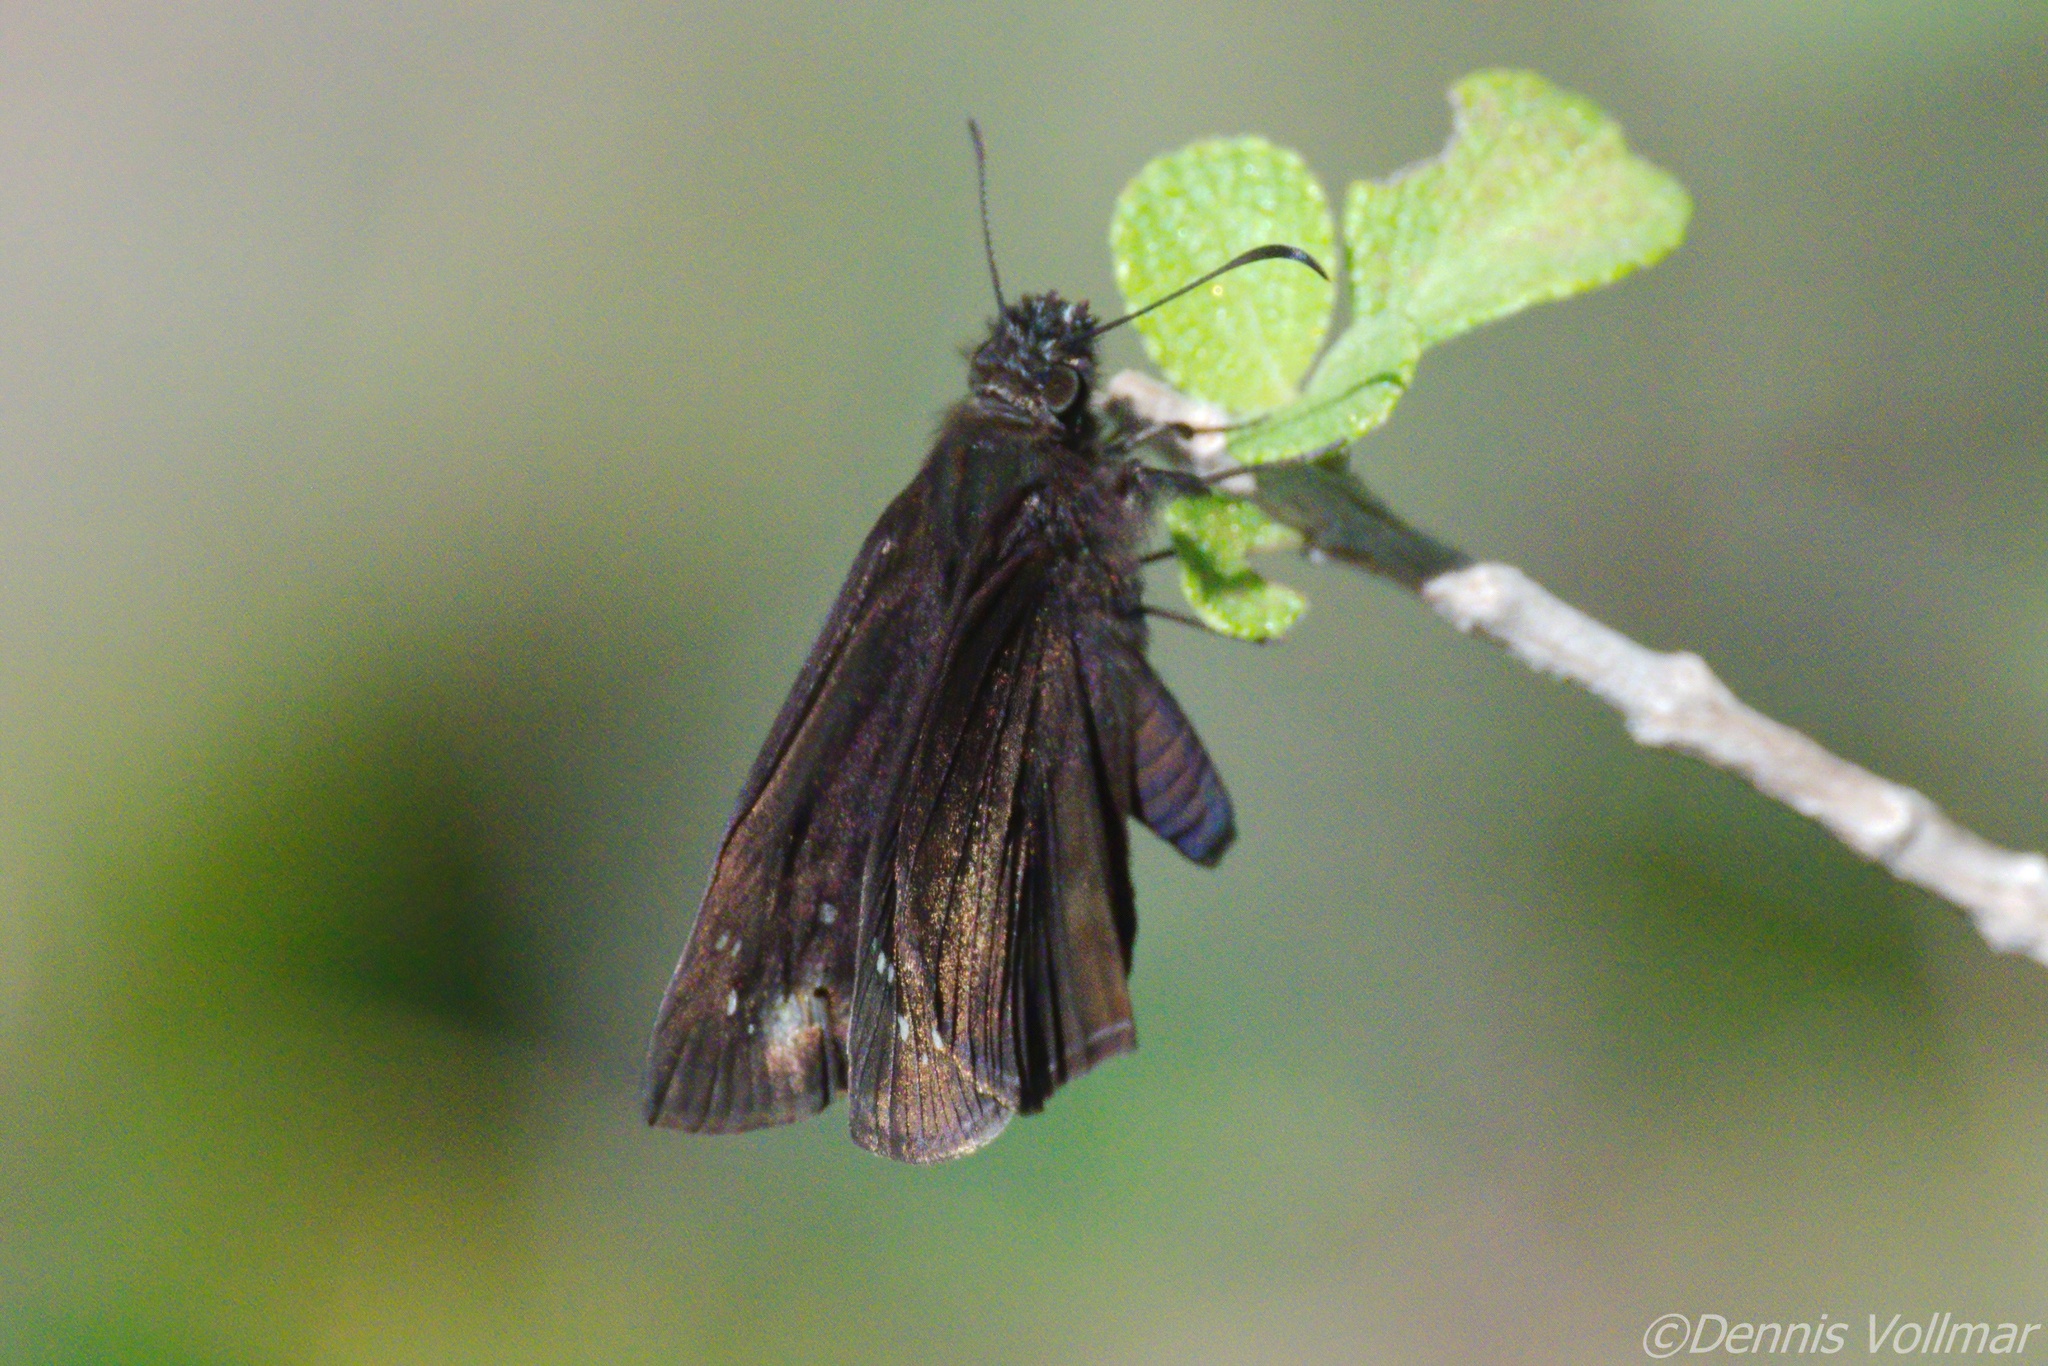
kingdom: Animalia
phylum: Arthropoda
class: Insecta
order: Lepidoptera
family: Hesperiidae
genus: Ephyriades
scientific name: Ephyriades brunnea
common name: Florida duskywing
